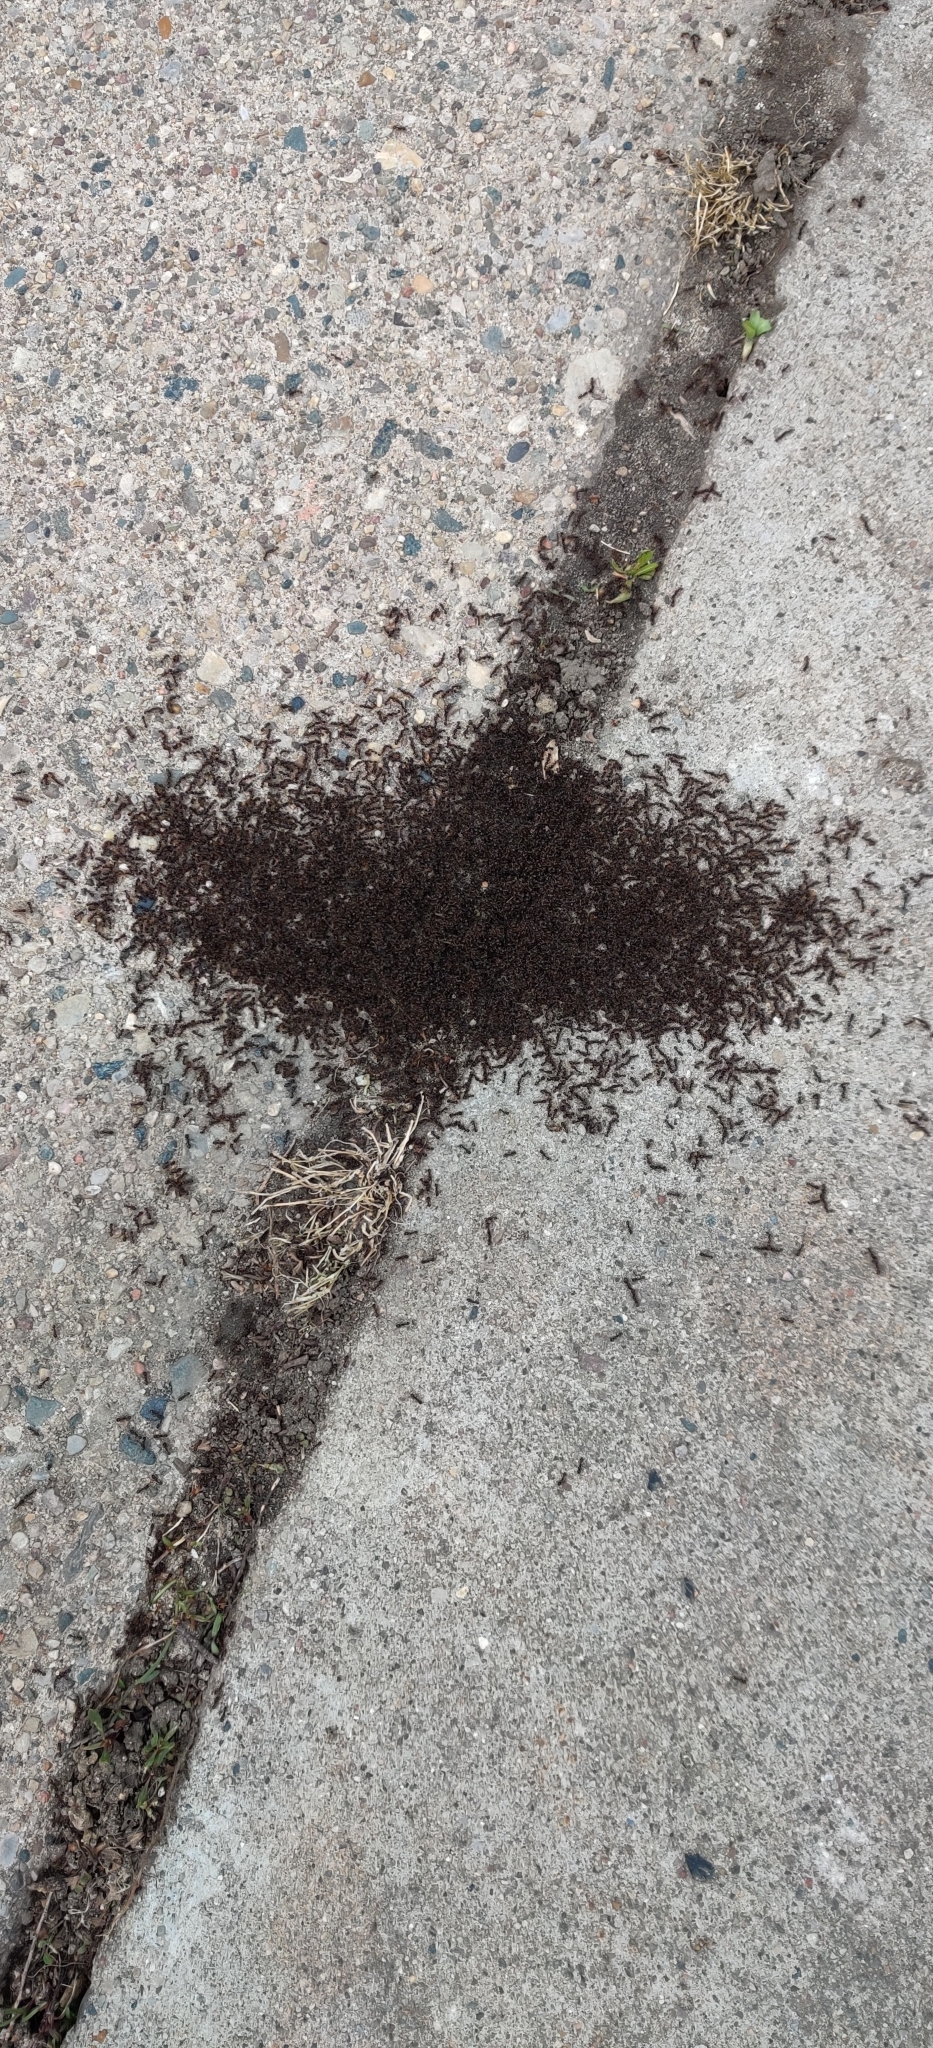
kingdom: Animalia
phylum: Arthropoda
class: Insecta
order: Hymenoptera
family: Formicidae
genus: Tetramorium
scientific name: Tetramorium immigrans
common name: Pavement ant
